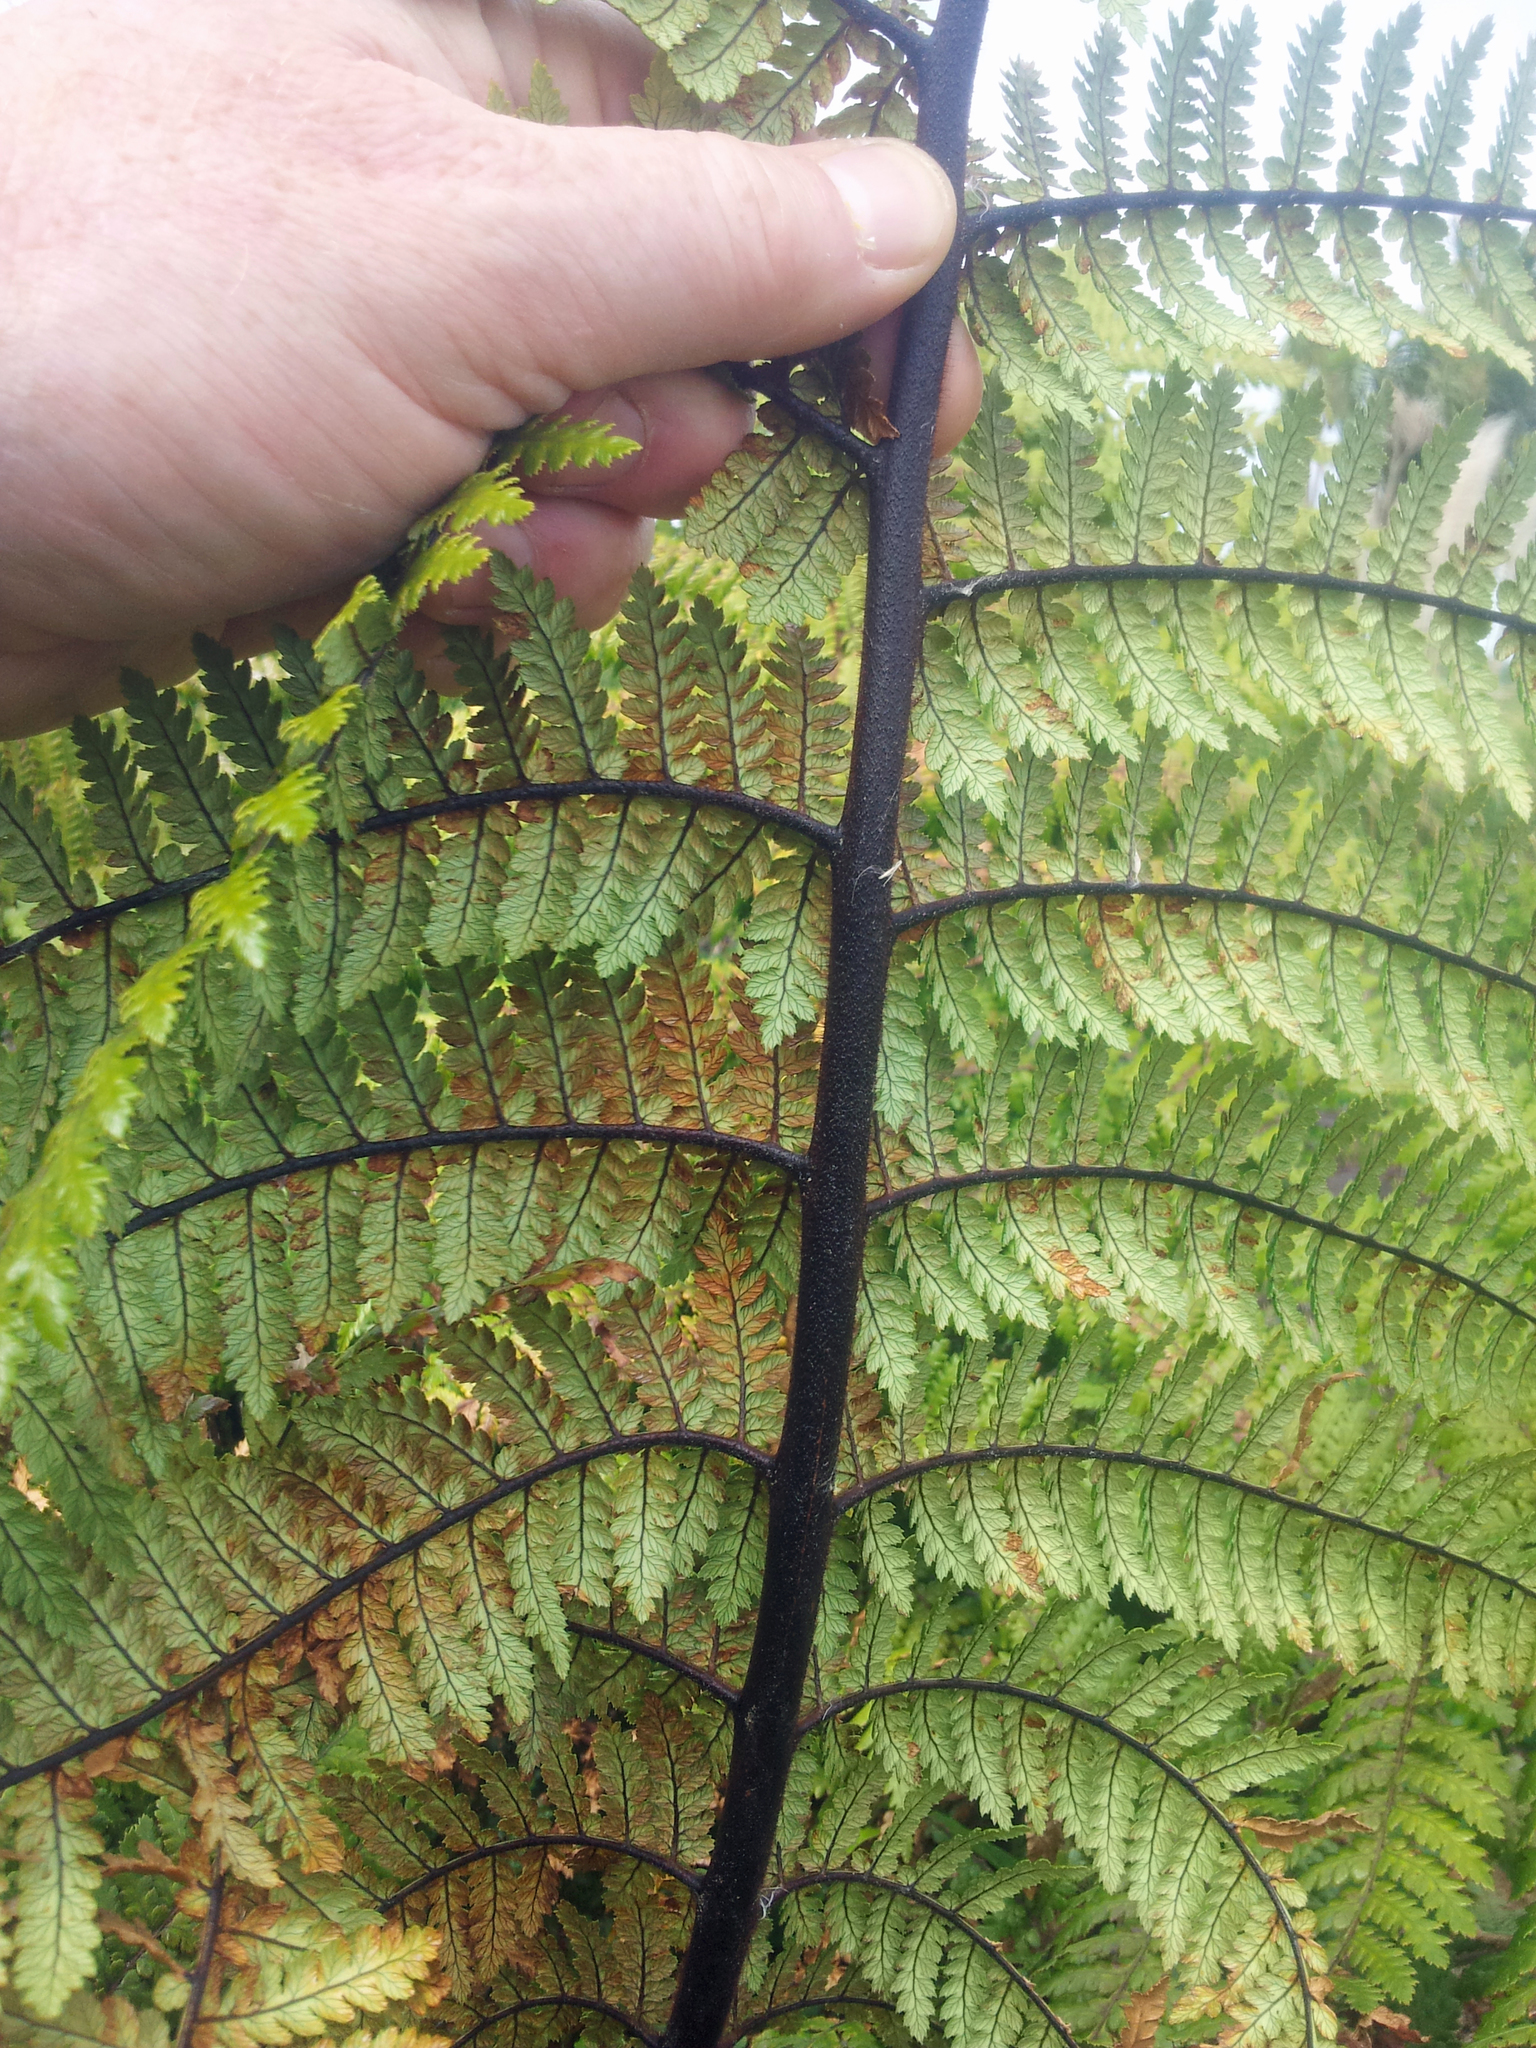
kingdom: Plantae
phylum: Tracheophyta
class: Polypodiopsida
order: Cyatheales
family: Dicksoniaceae
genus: Dicksonia
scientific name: Dicksonia squarrosa
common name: Hard treefern
